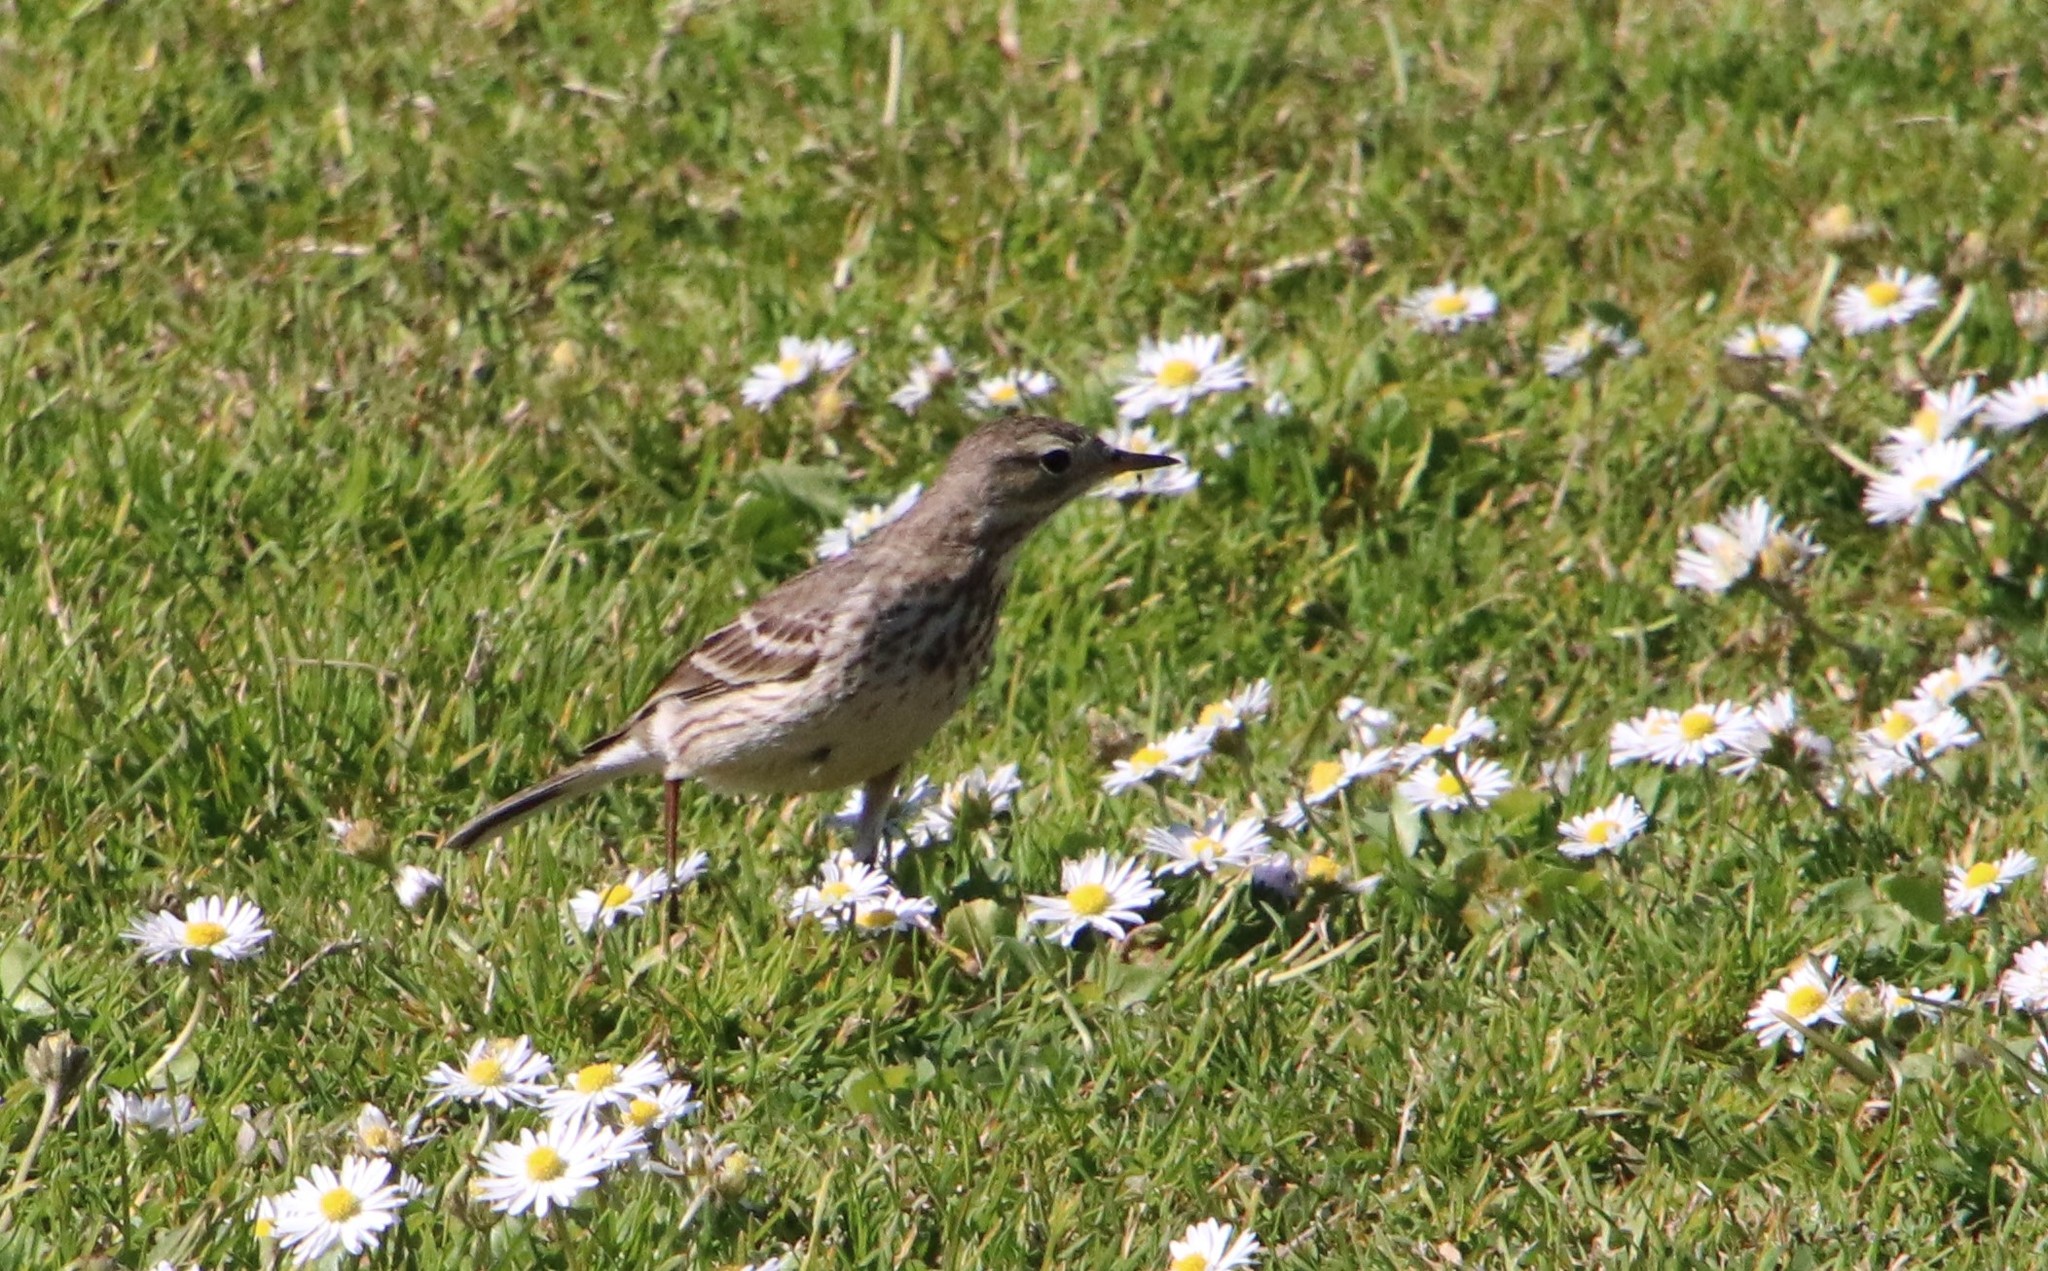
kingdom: Animalia
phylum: Chordata
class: Aves
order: Passeriformes
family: Motacillidae
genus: Anthus
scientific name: Anthus rubescens
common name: Buff-bellied pipit
